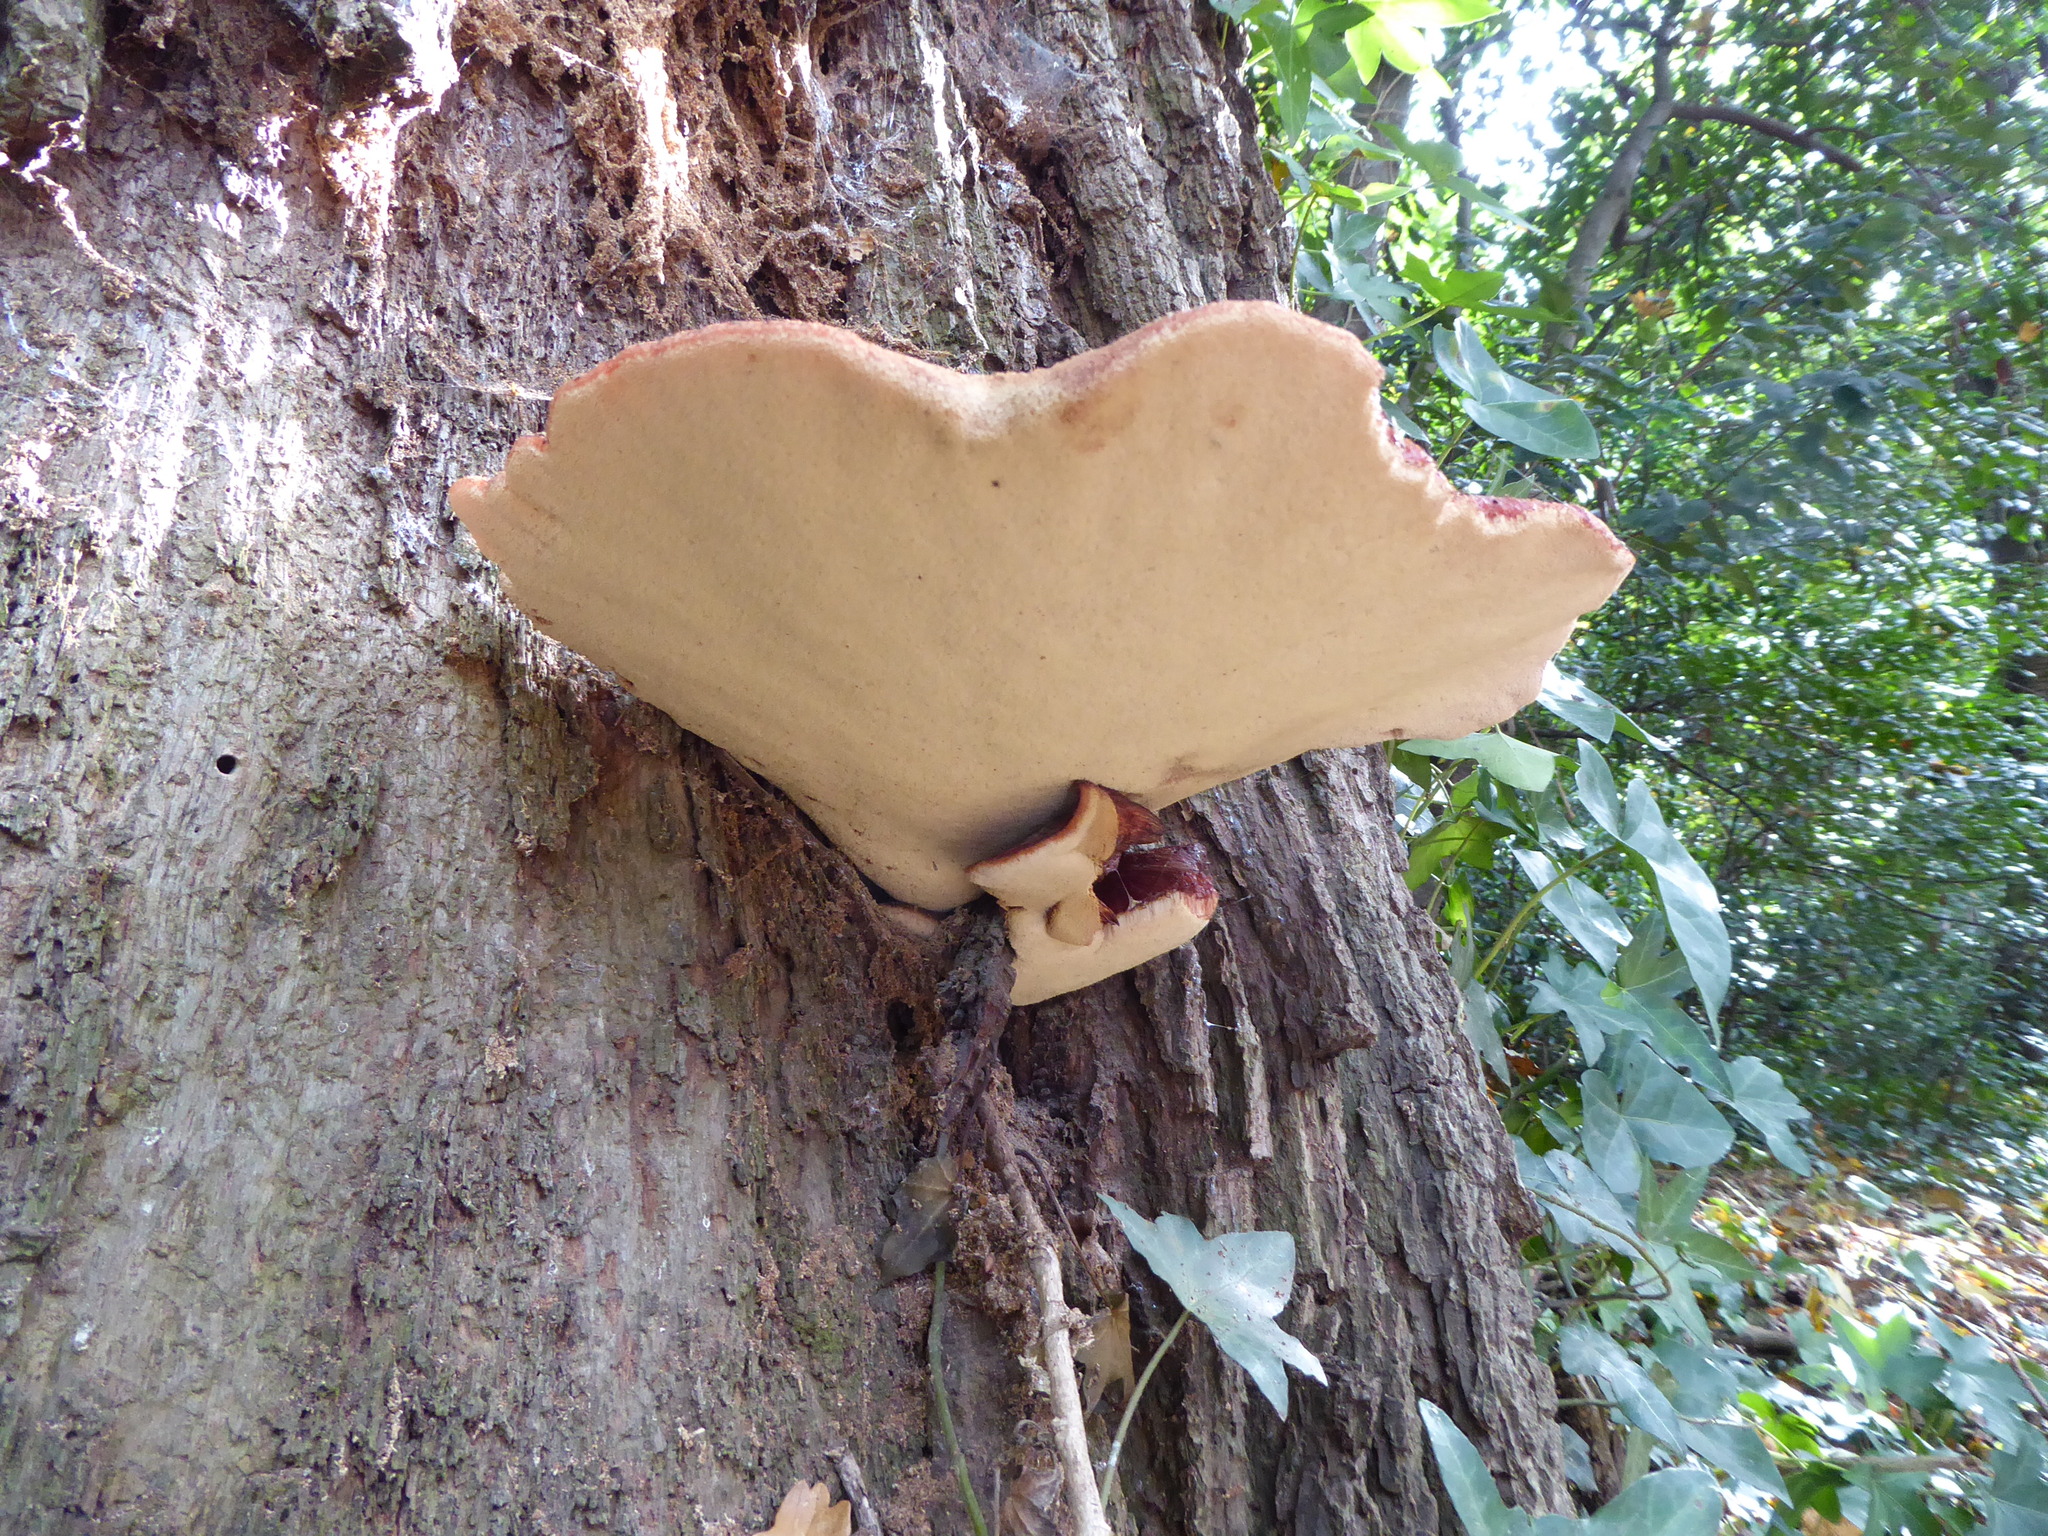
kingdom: Fungi
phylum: Basidiomycota
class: Agaricomycetes
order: Agaricales
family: Fistulinaceae
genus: Fistulina
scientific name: Fistulina hepatica
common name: Beef-steak fungus
